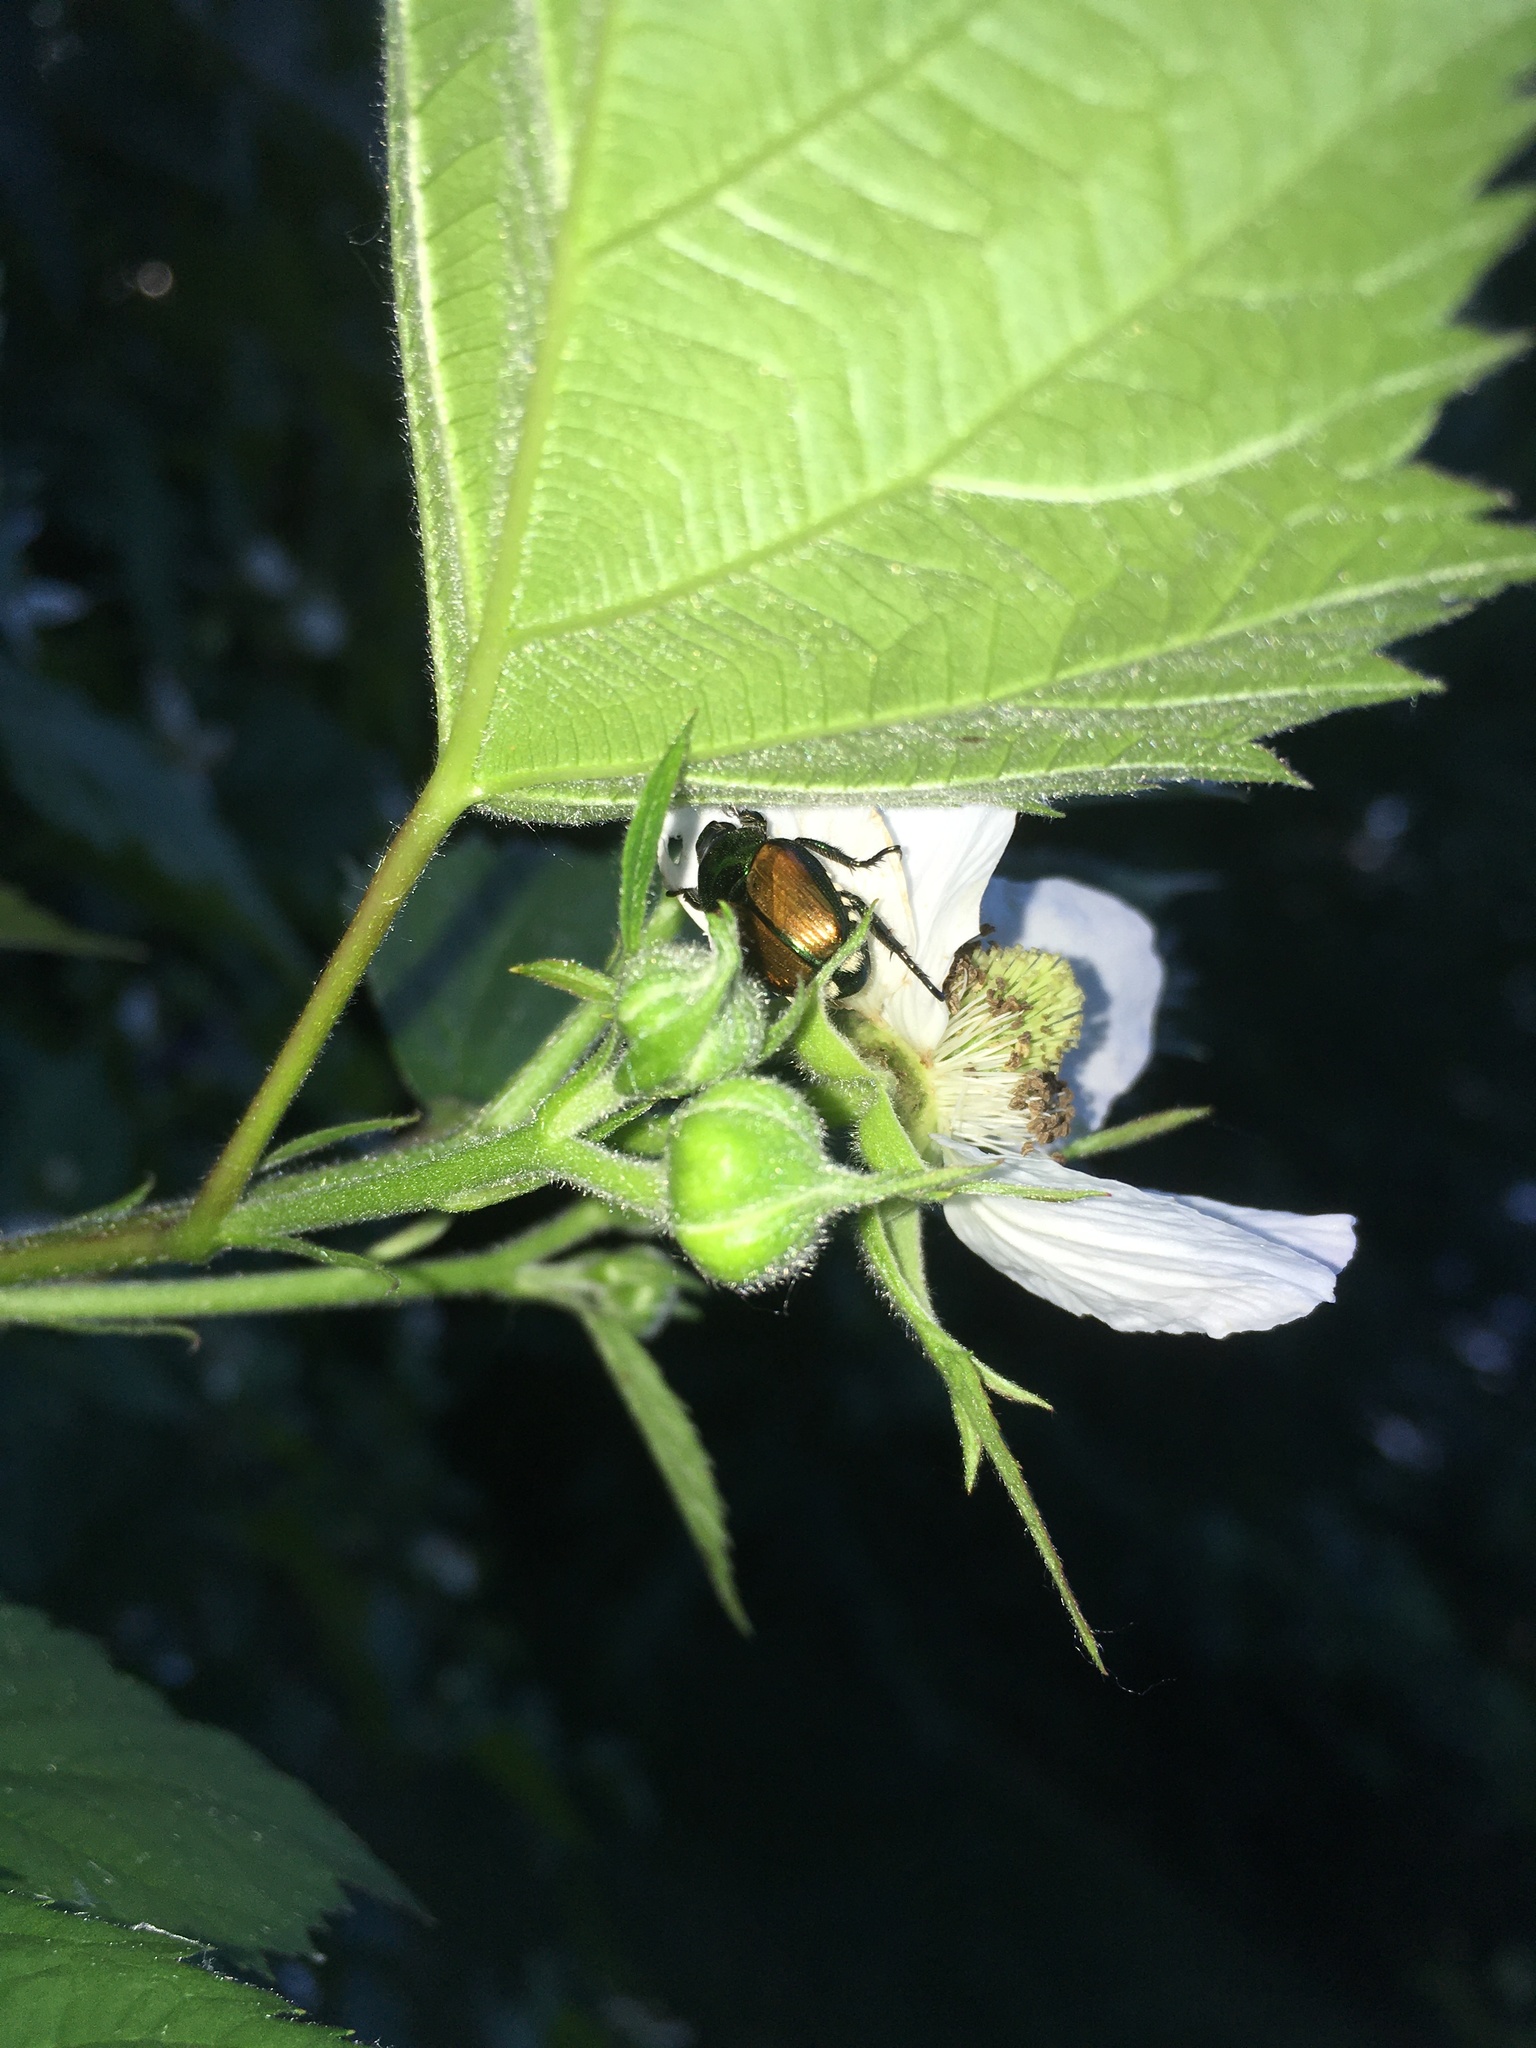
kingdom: Animalia
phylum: Arthropoda
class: Insecta
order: Coleoptera
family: Scarabaeidae
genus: Popillia
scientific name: Popillia japonica
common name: Japanese beetle
